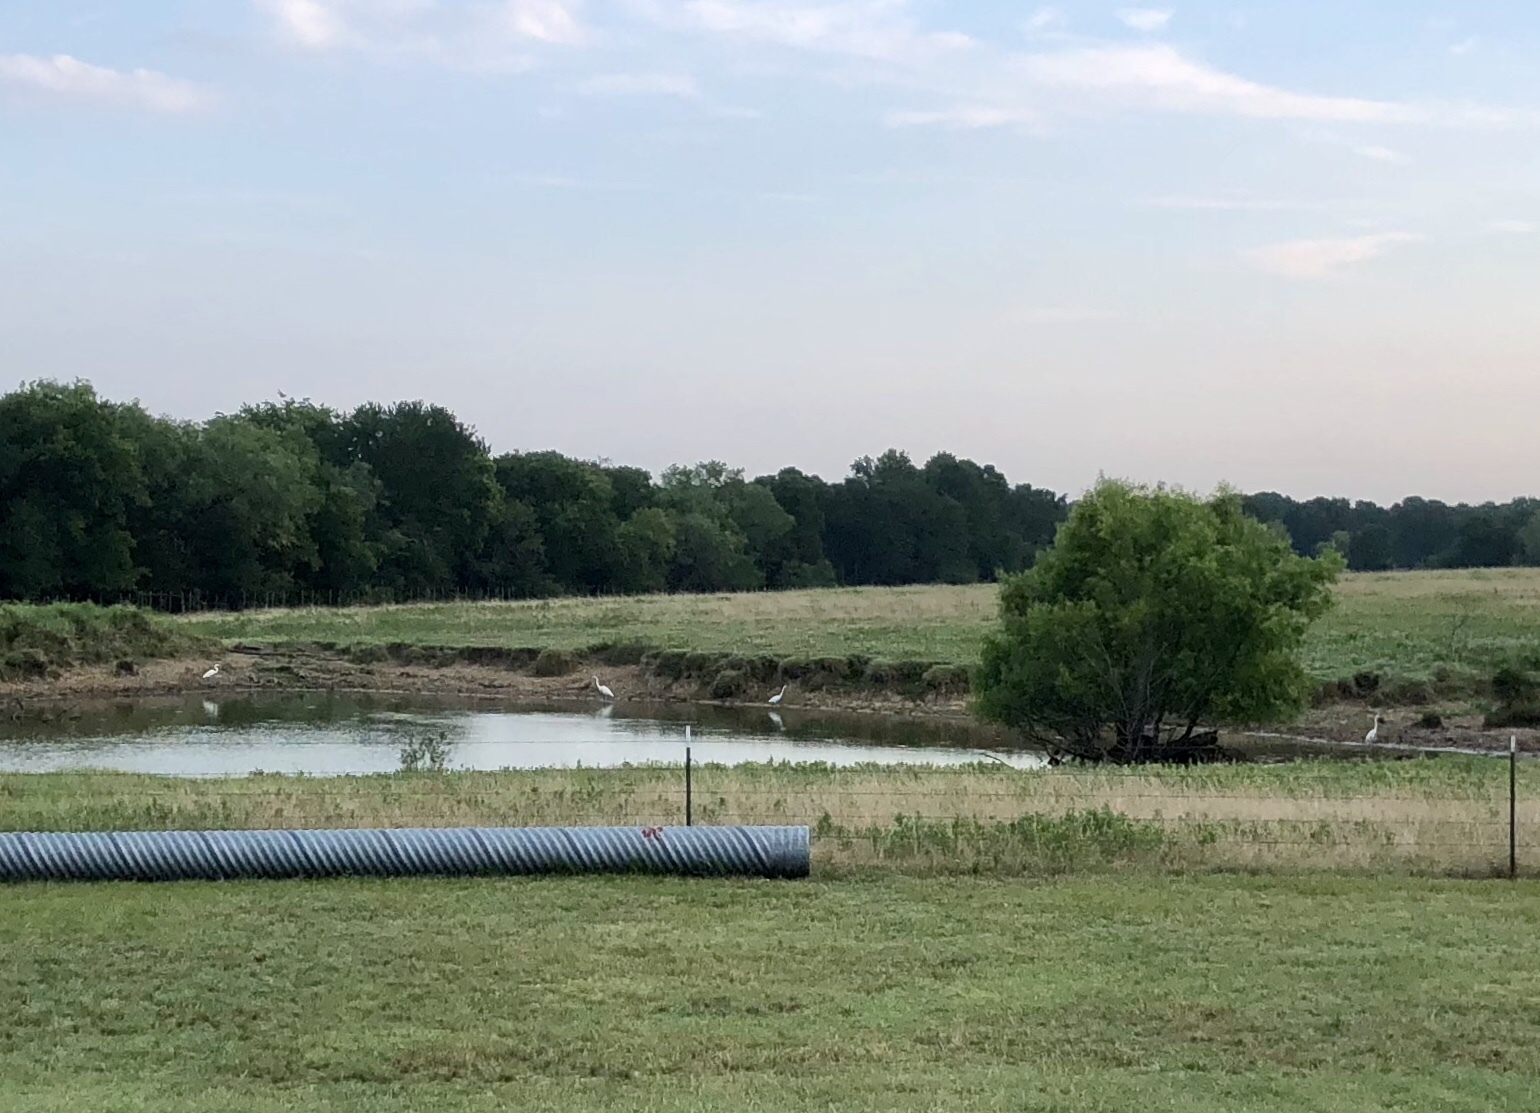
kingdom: Animalia
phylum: Chordata
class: Aves
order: Pelecaniformes
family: Ardeidae
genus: Ardea
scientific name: Ardea alba
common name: Great egret
